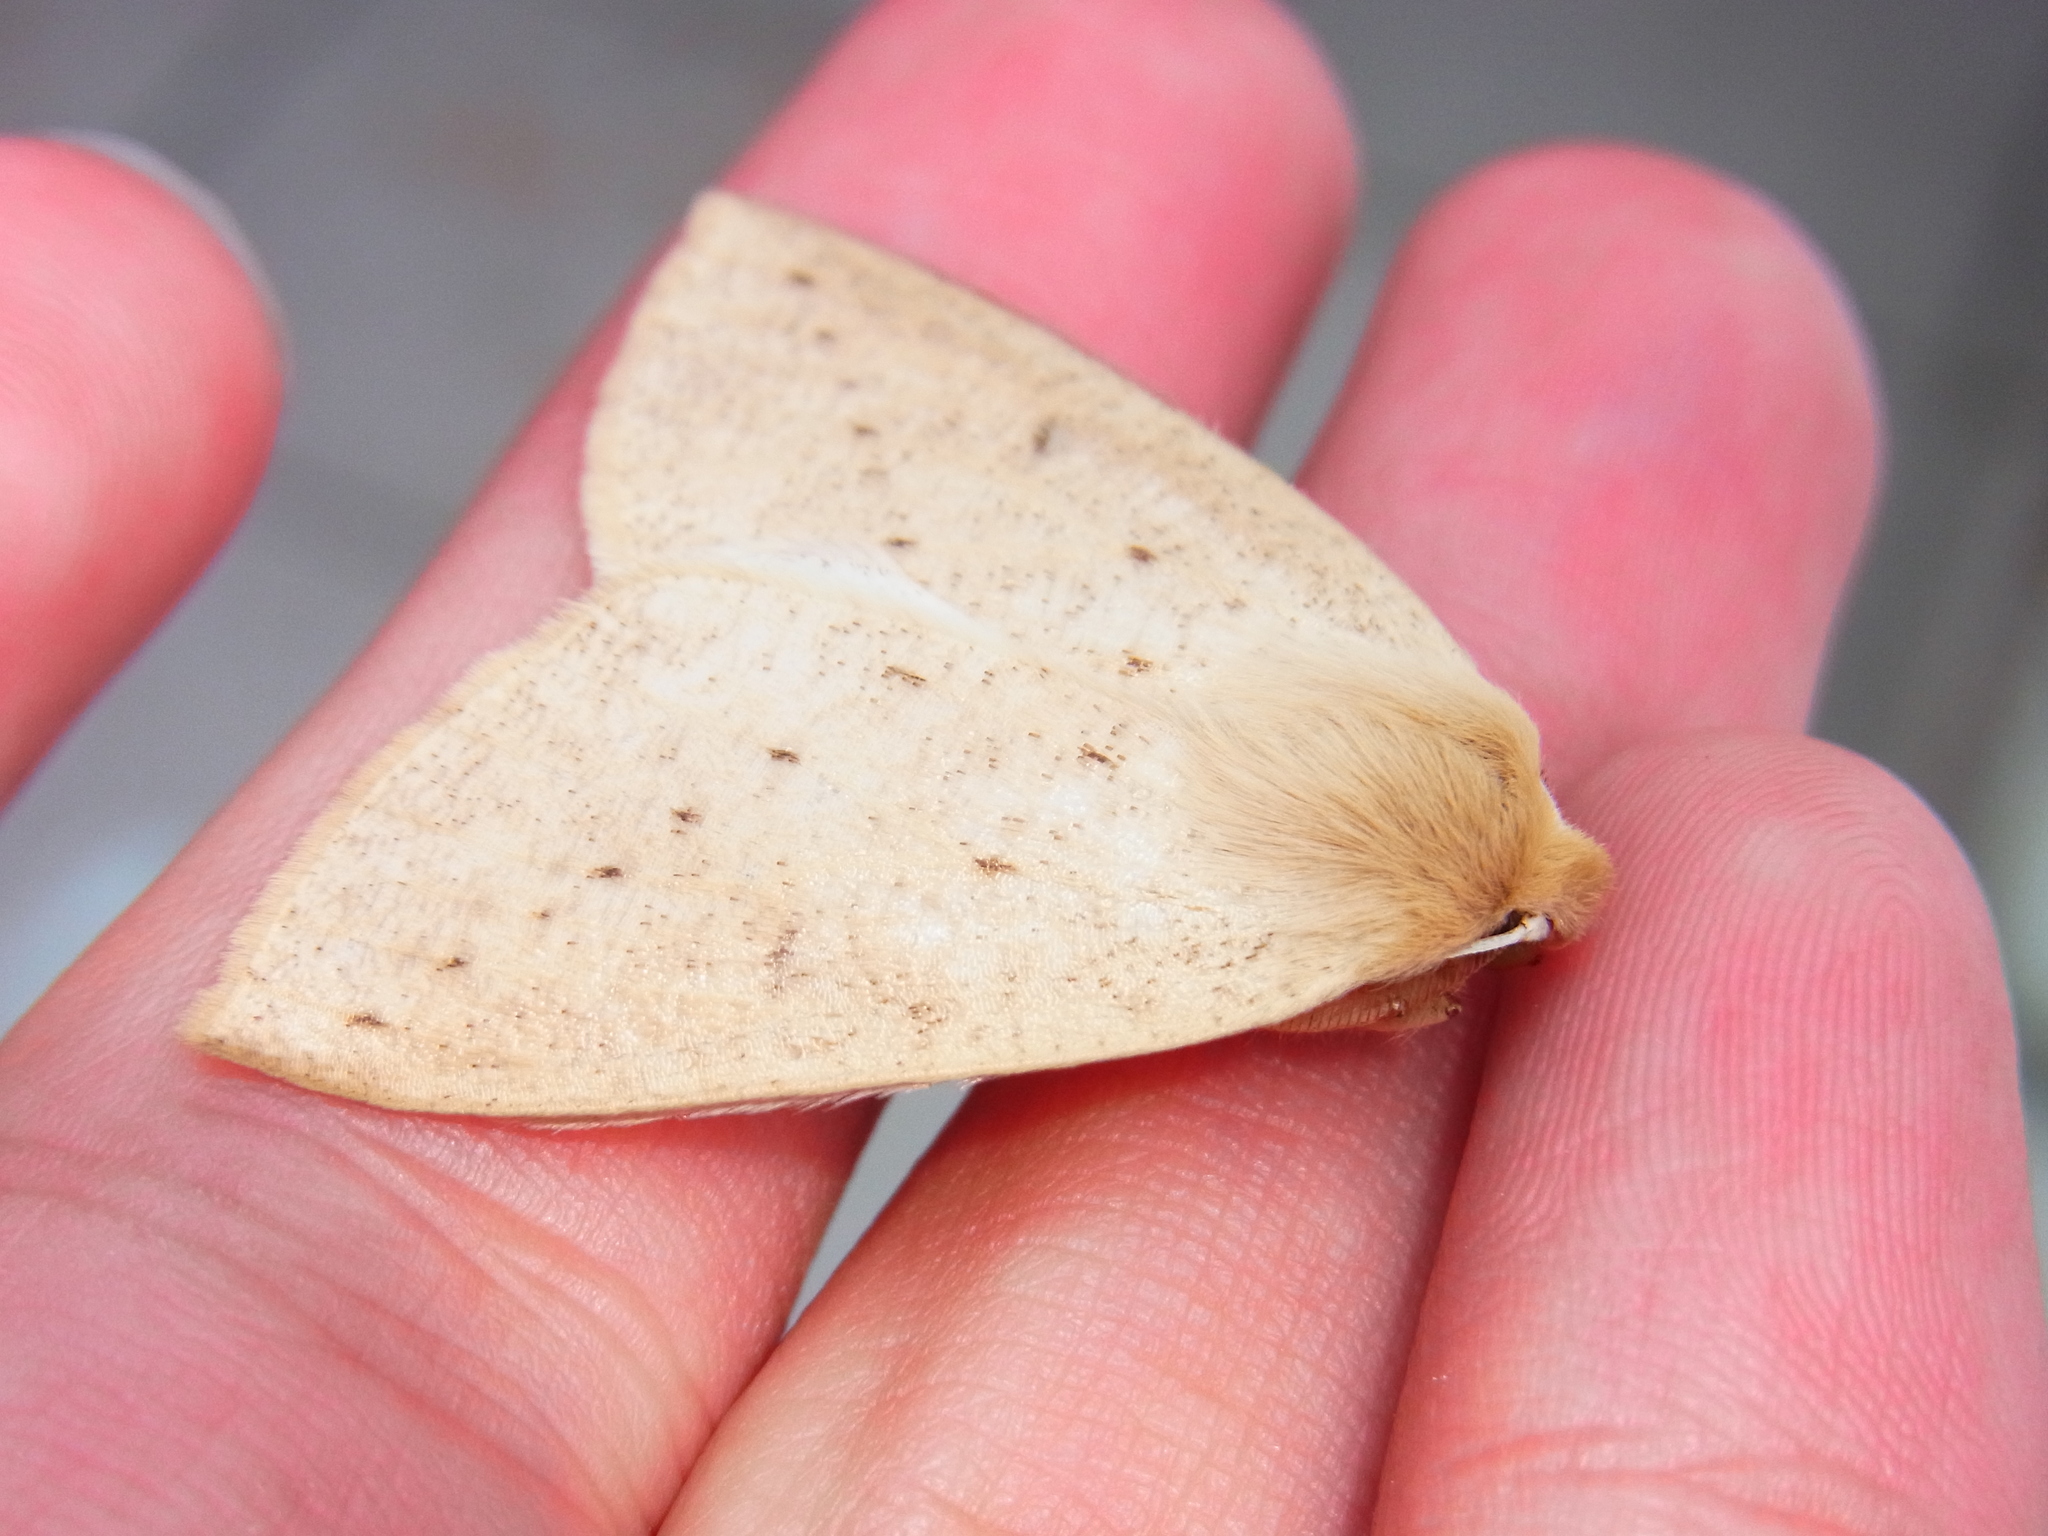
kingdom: Animalia
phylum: Arthropoda
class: Insecta
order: Lepidoptera
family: Geometridae
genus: Descoreba
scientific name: Descoreba simplex
